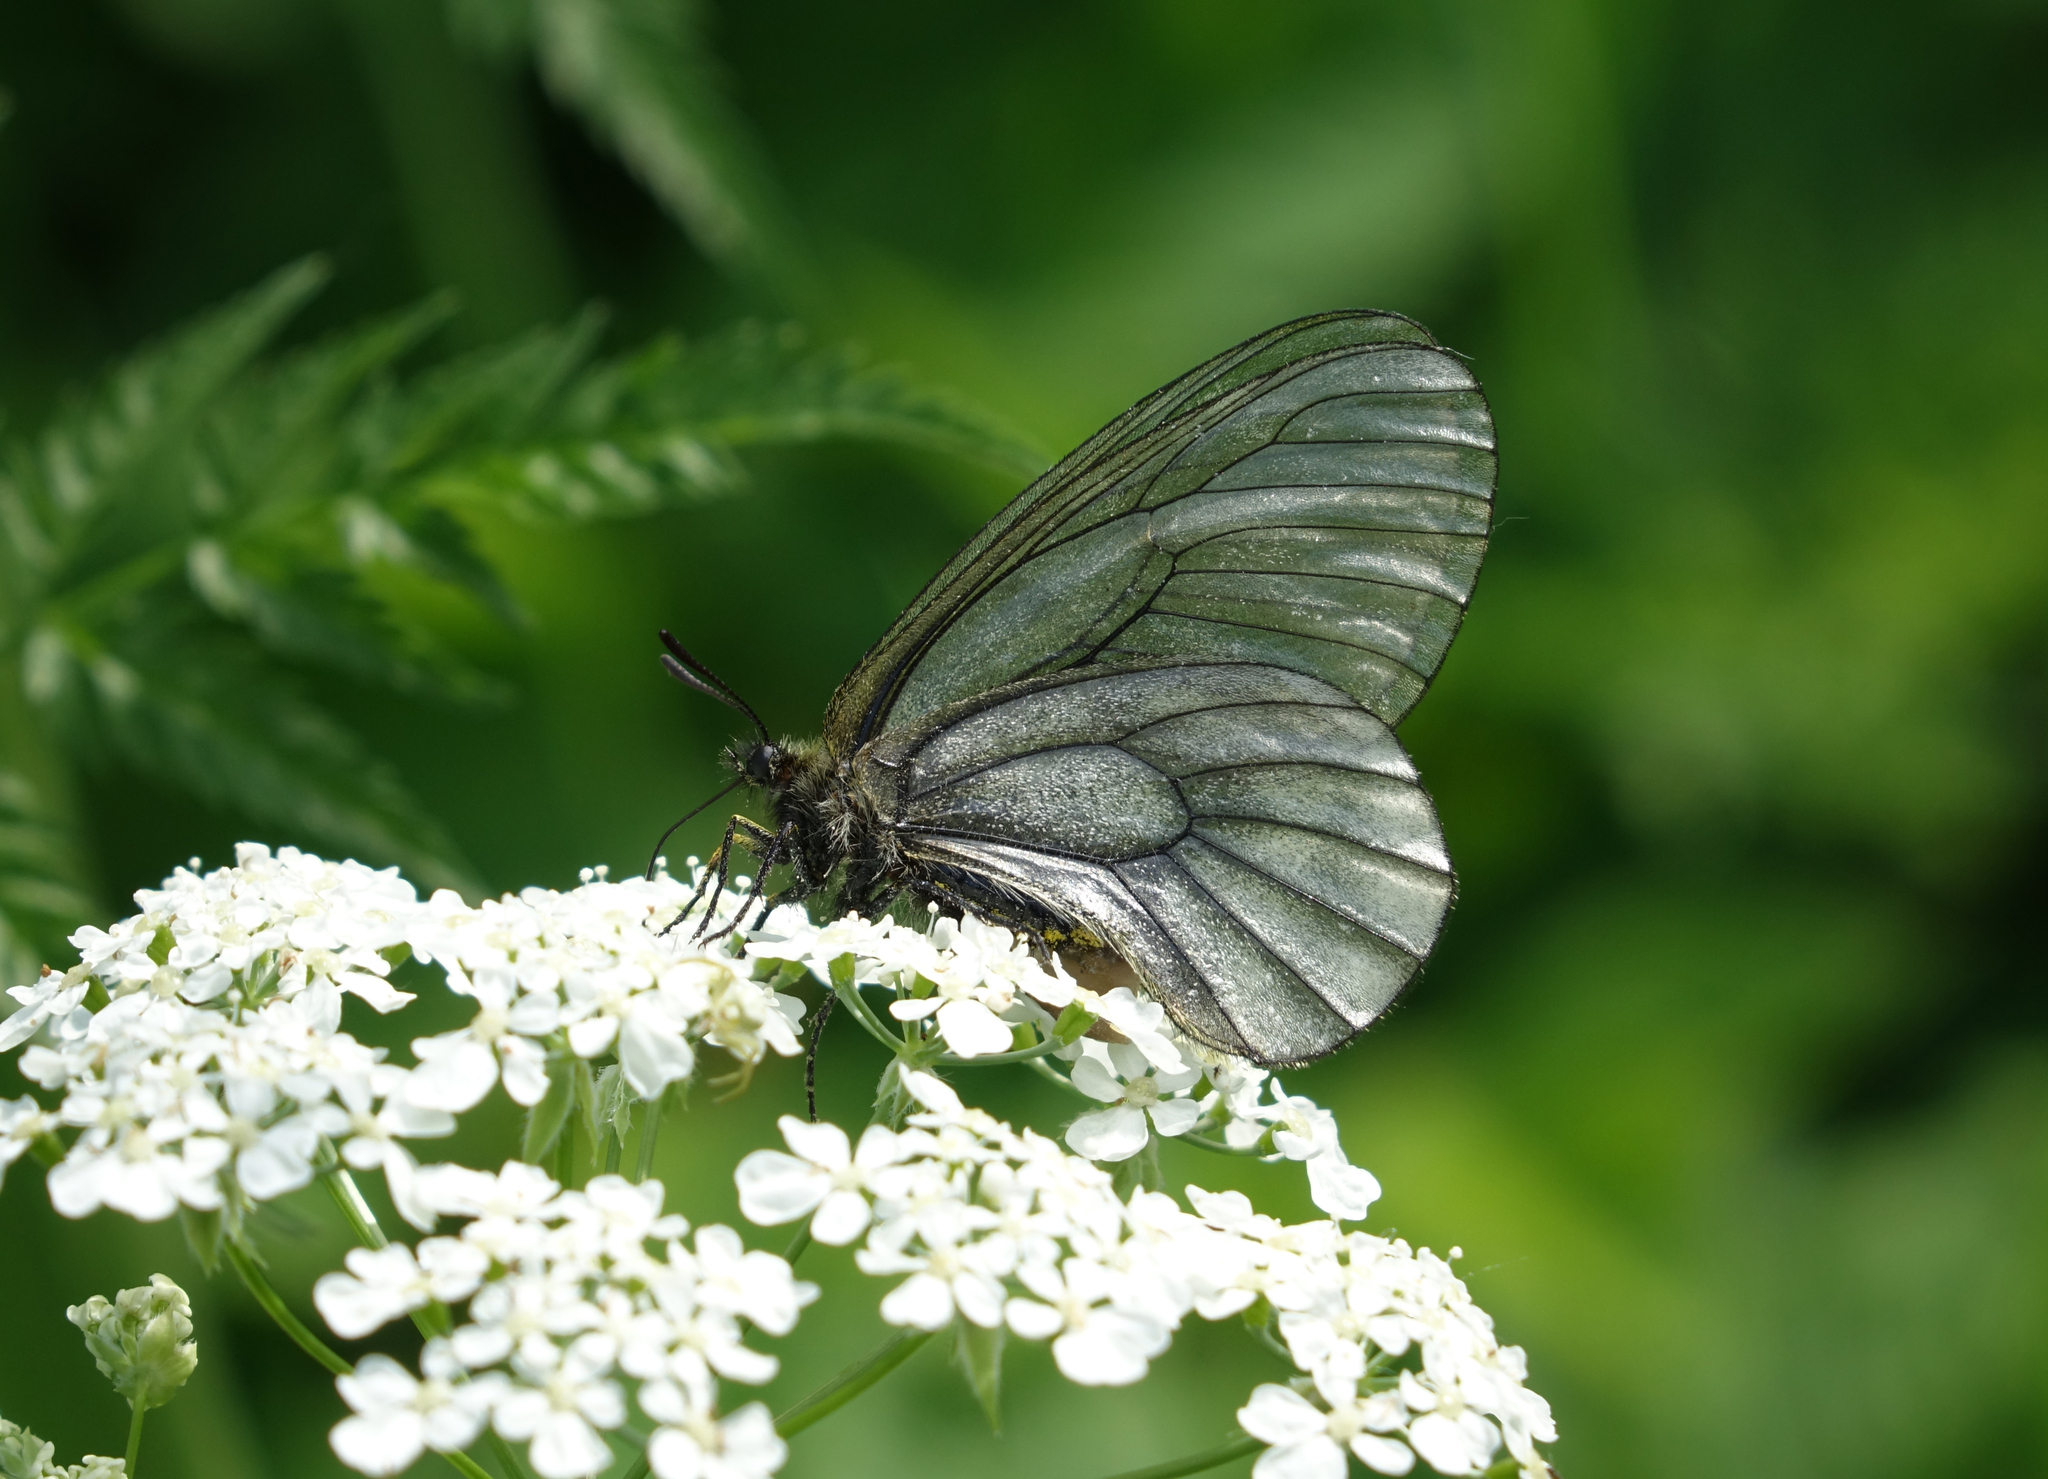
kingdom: Animalia
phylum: Arthropoda
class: Insecta
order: Lepidoptera
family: Papilionidae
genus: Parnassius
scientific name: Parnassius stubbendorfii
